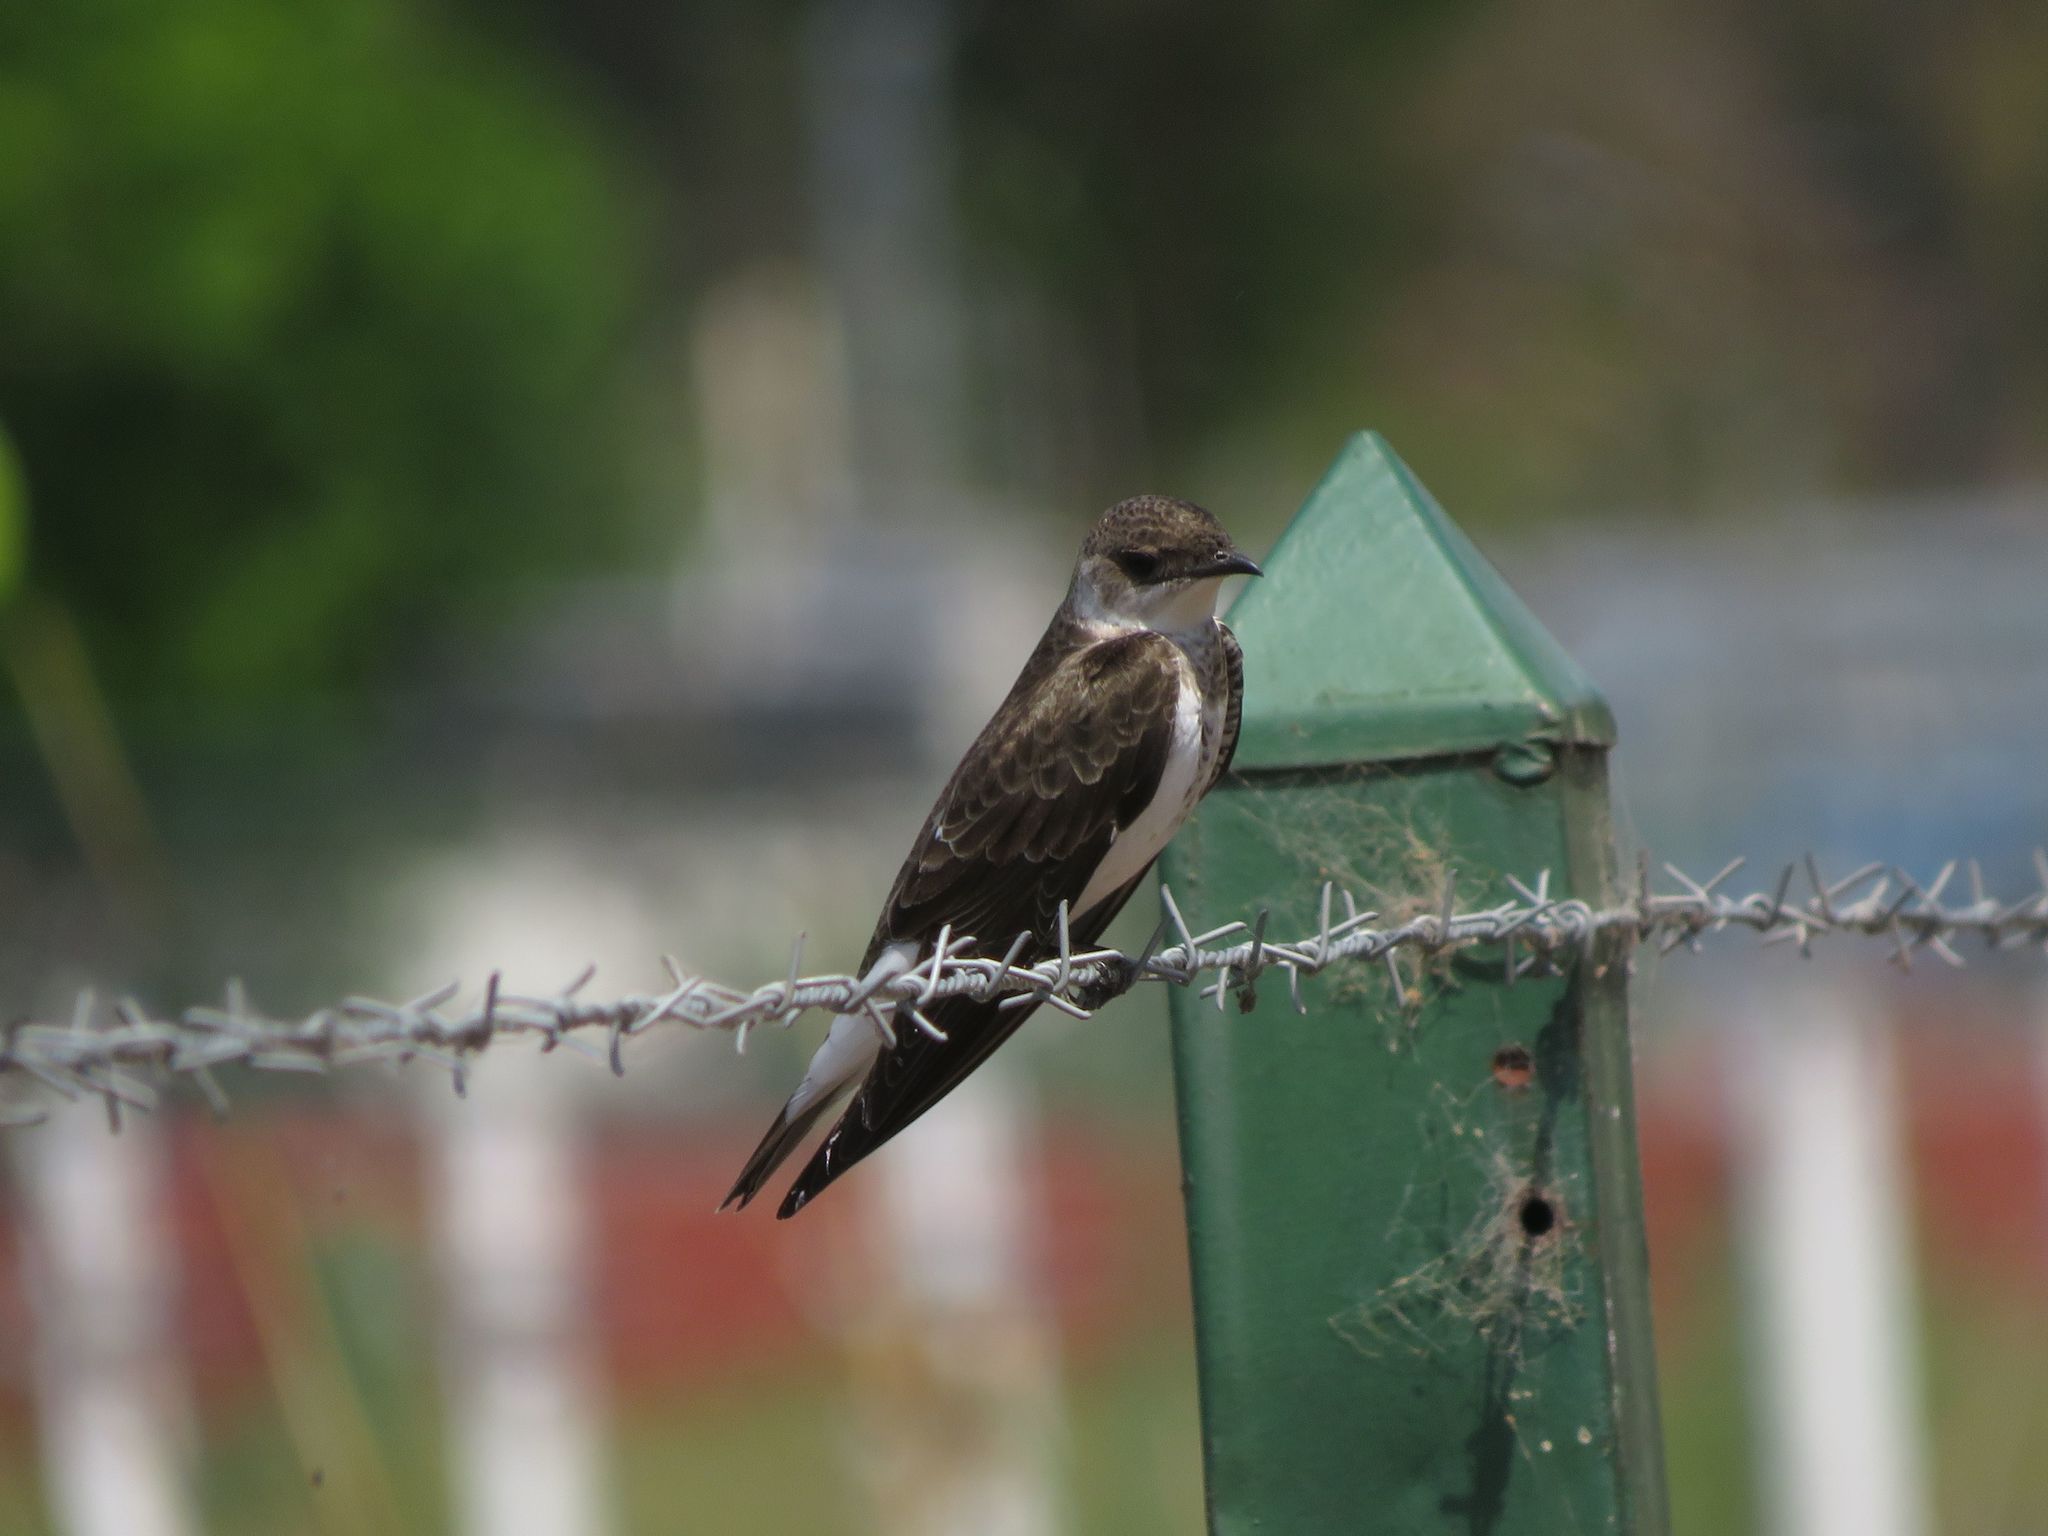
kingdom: Animalia
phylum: Chordata
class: Aves
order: Passeriformes
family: Hirundinidae
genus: Progne
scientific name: Progne tapera
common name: Brown-chested martin
